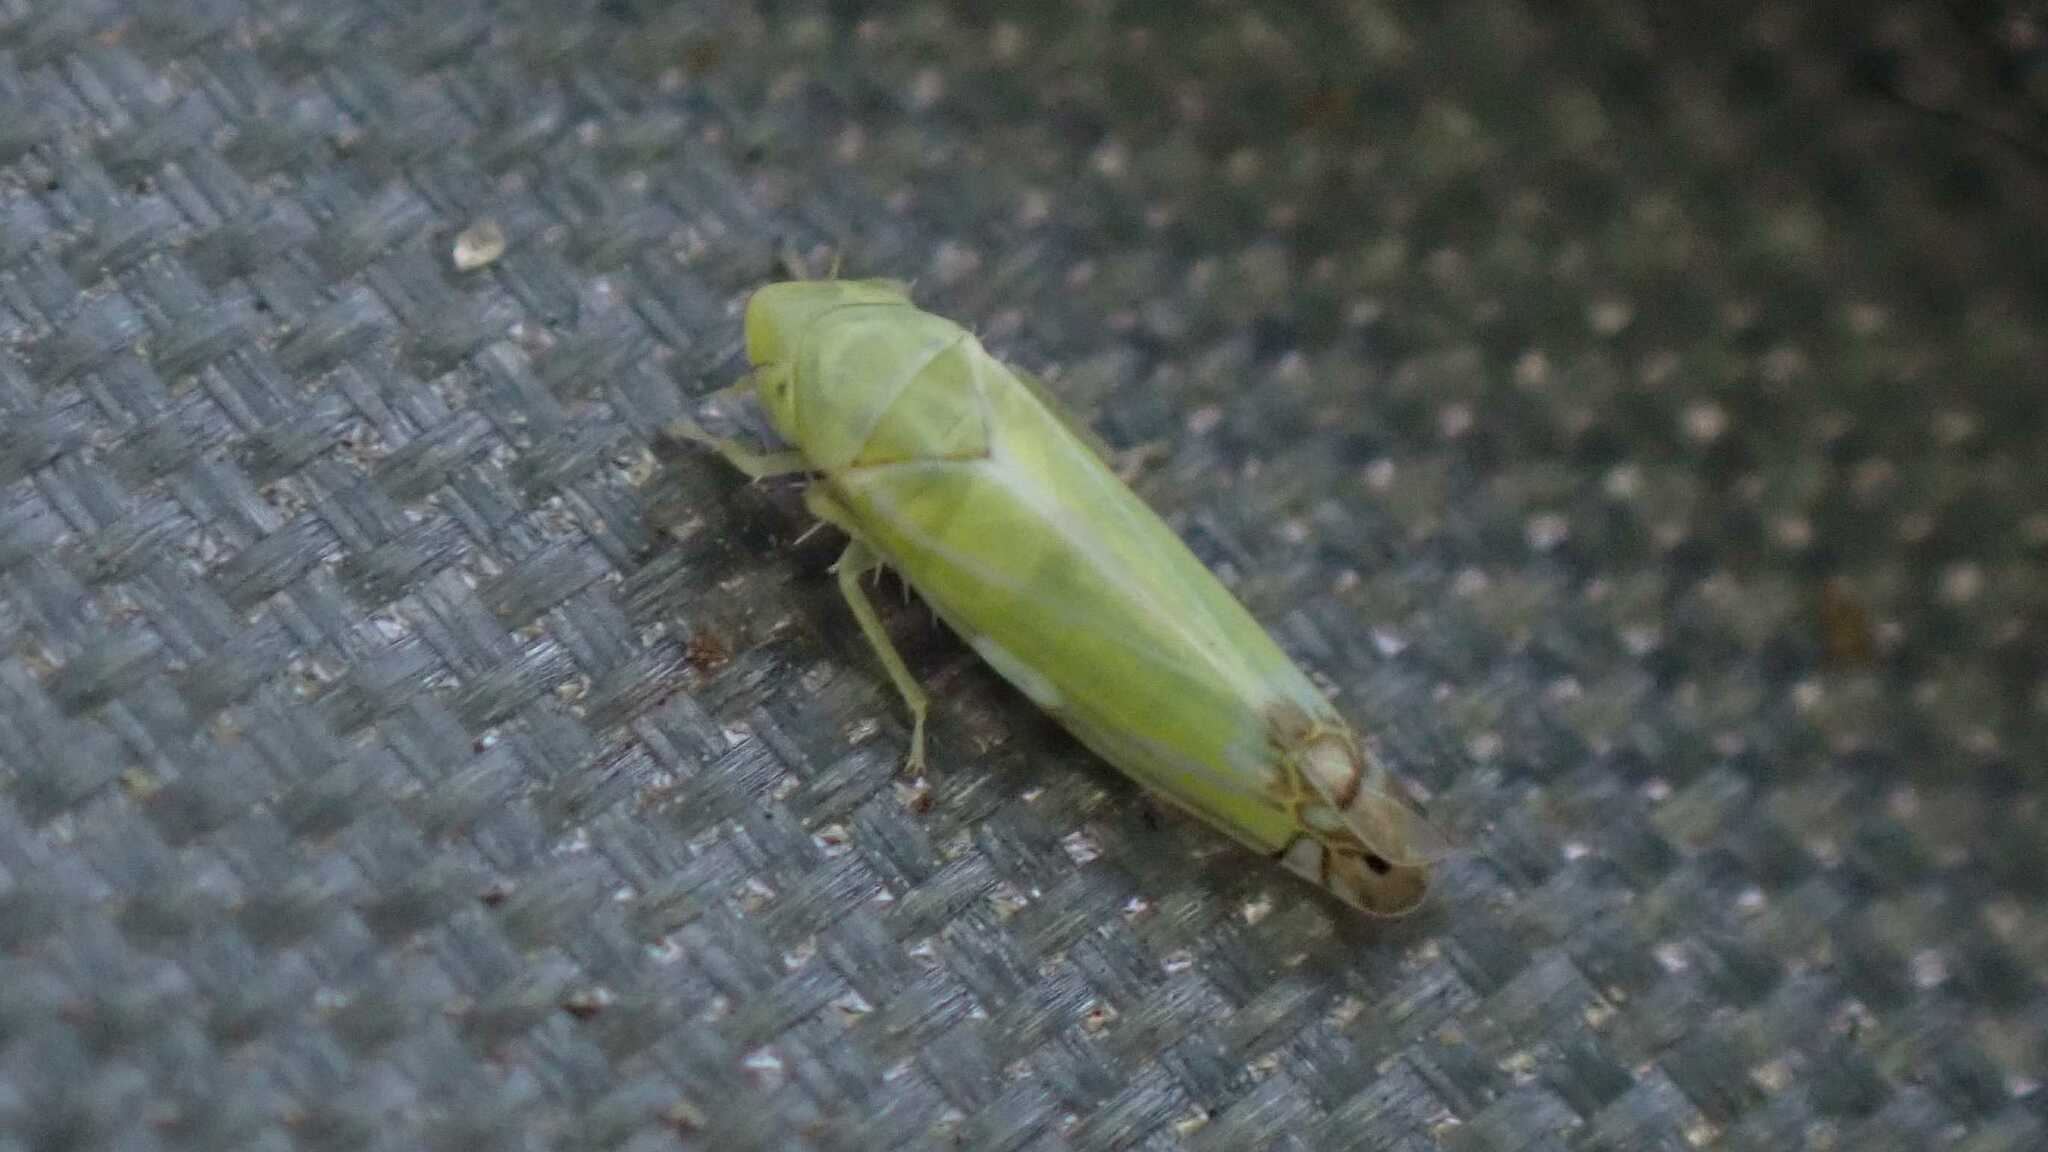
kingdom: Animalia
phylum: Arthropoda
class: Insecta
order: Hemiptera
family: Cicadellidae
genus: Zyginella
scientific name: Zyginella pulchra
